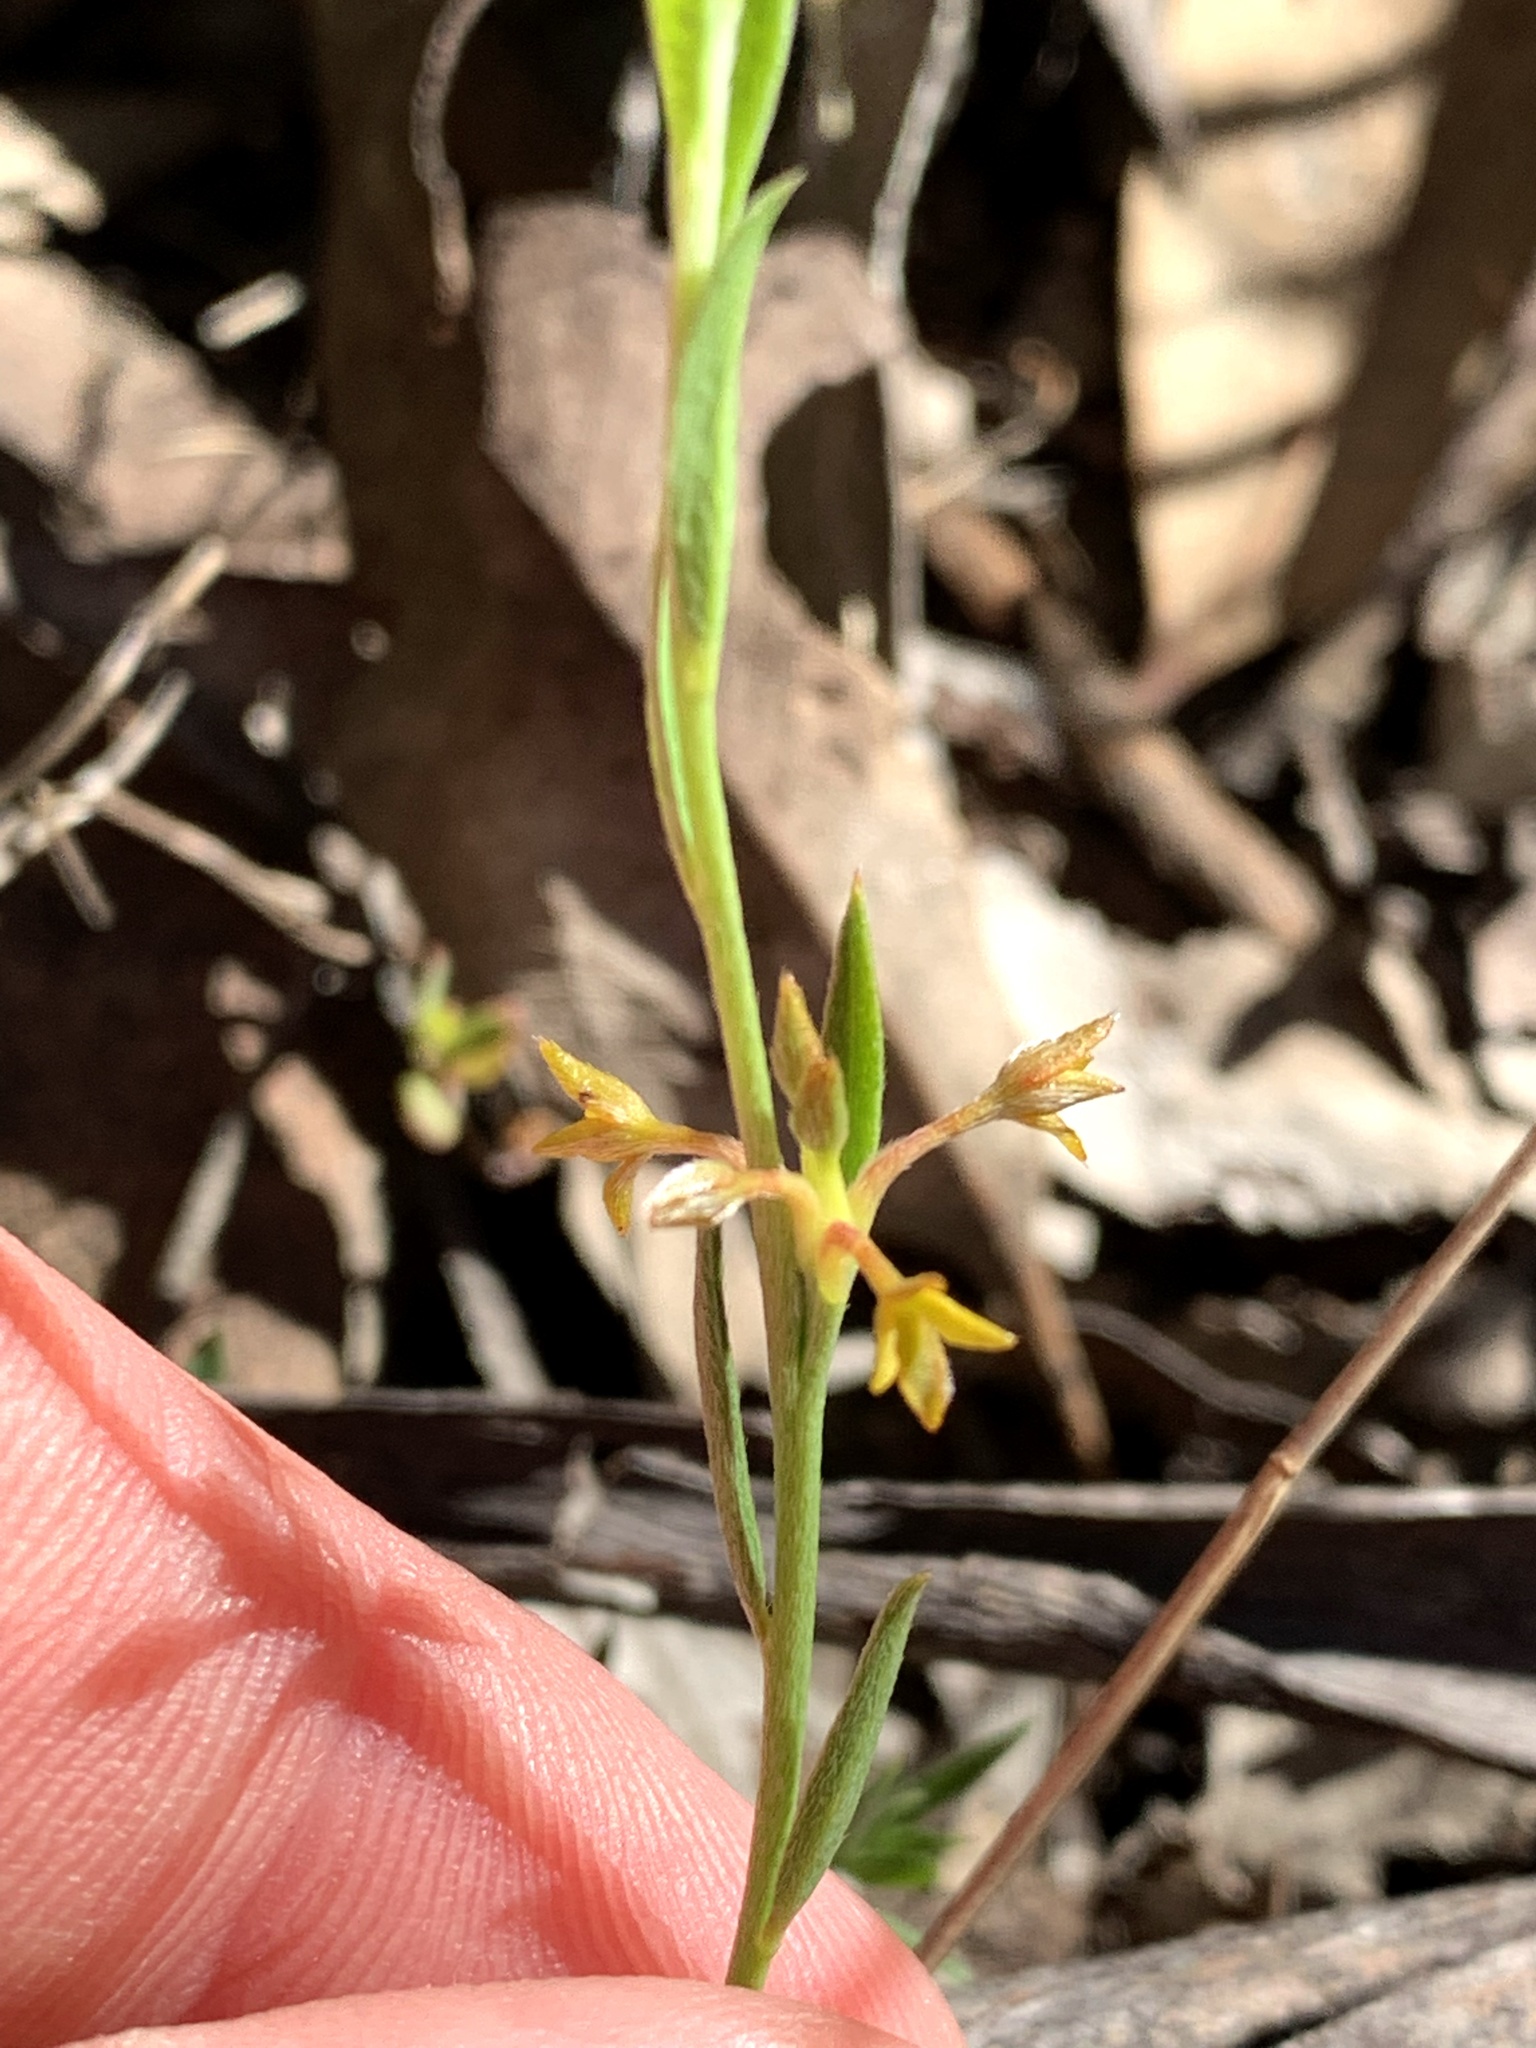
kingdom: Plantae
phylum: Tracheophyta
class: Magnoliopsida
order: Malvales
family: Thymelaeaceae
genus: Pimelea
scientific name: Pimelea curviflora
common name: Curved riceflower
